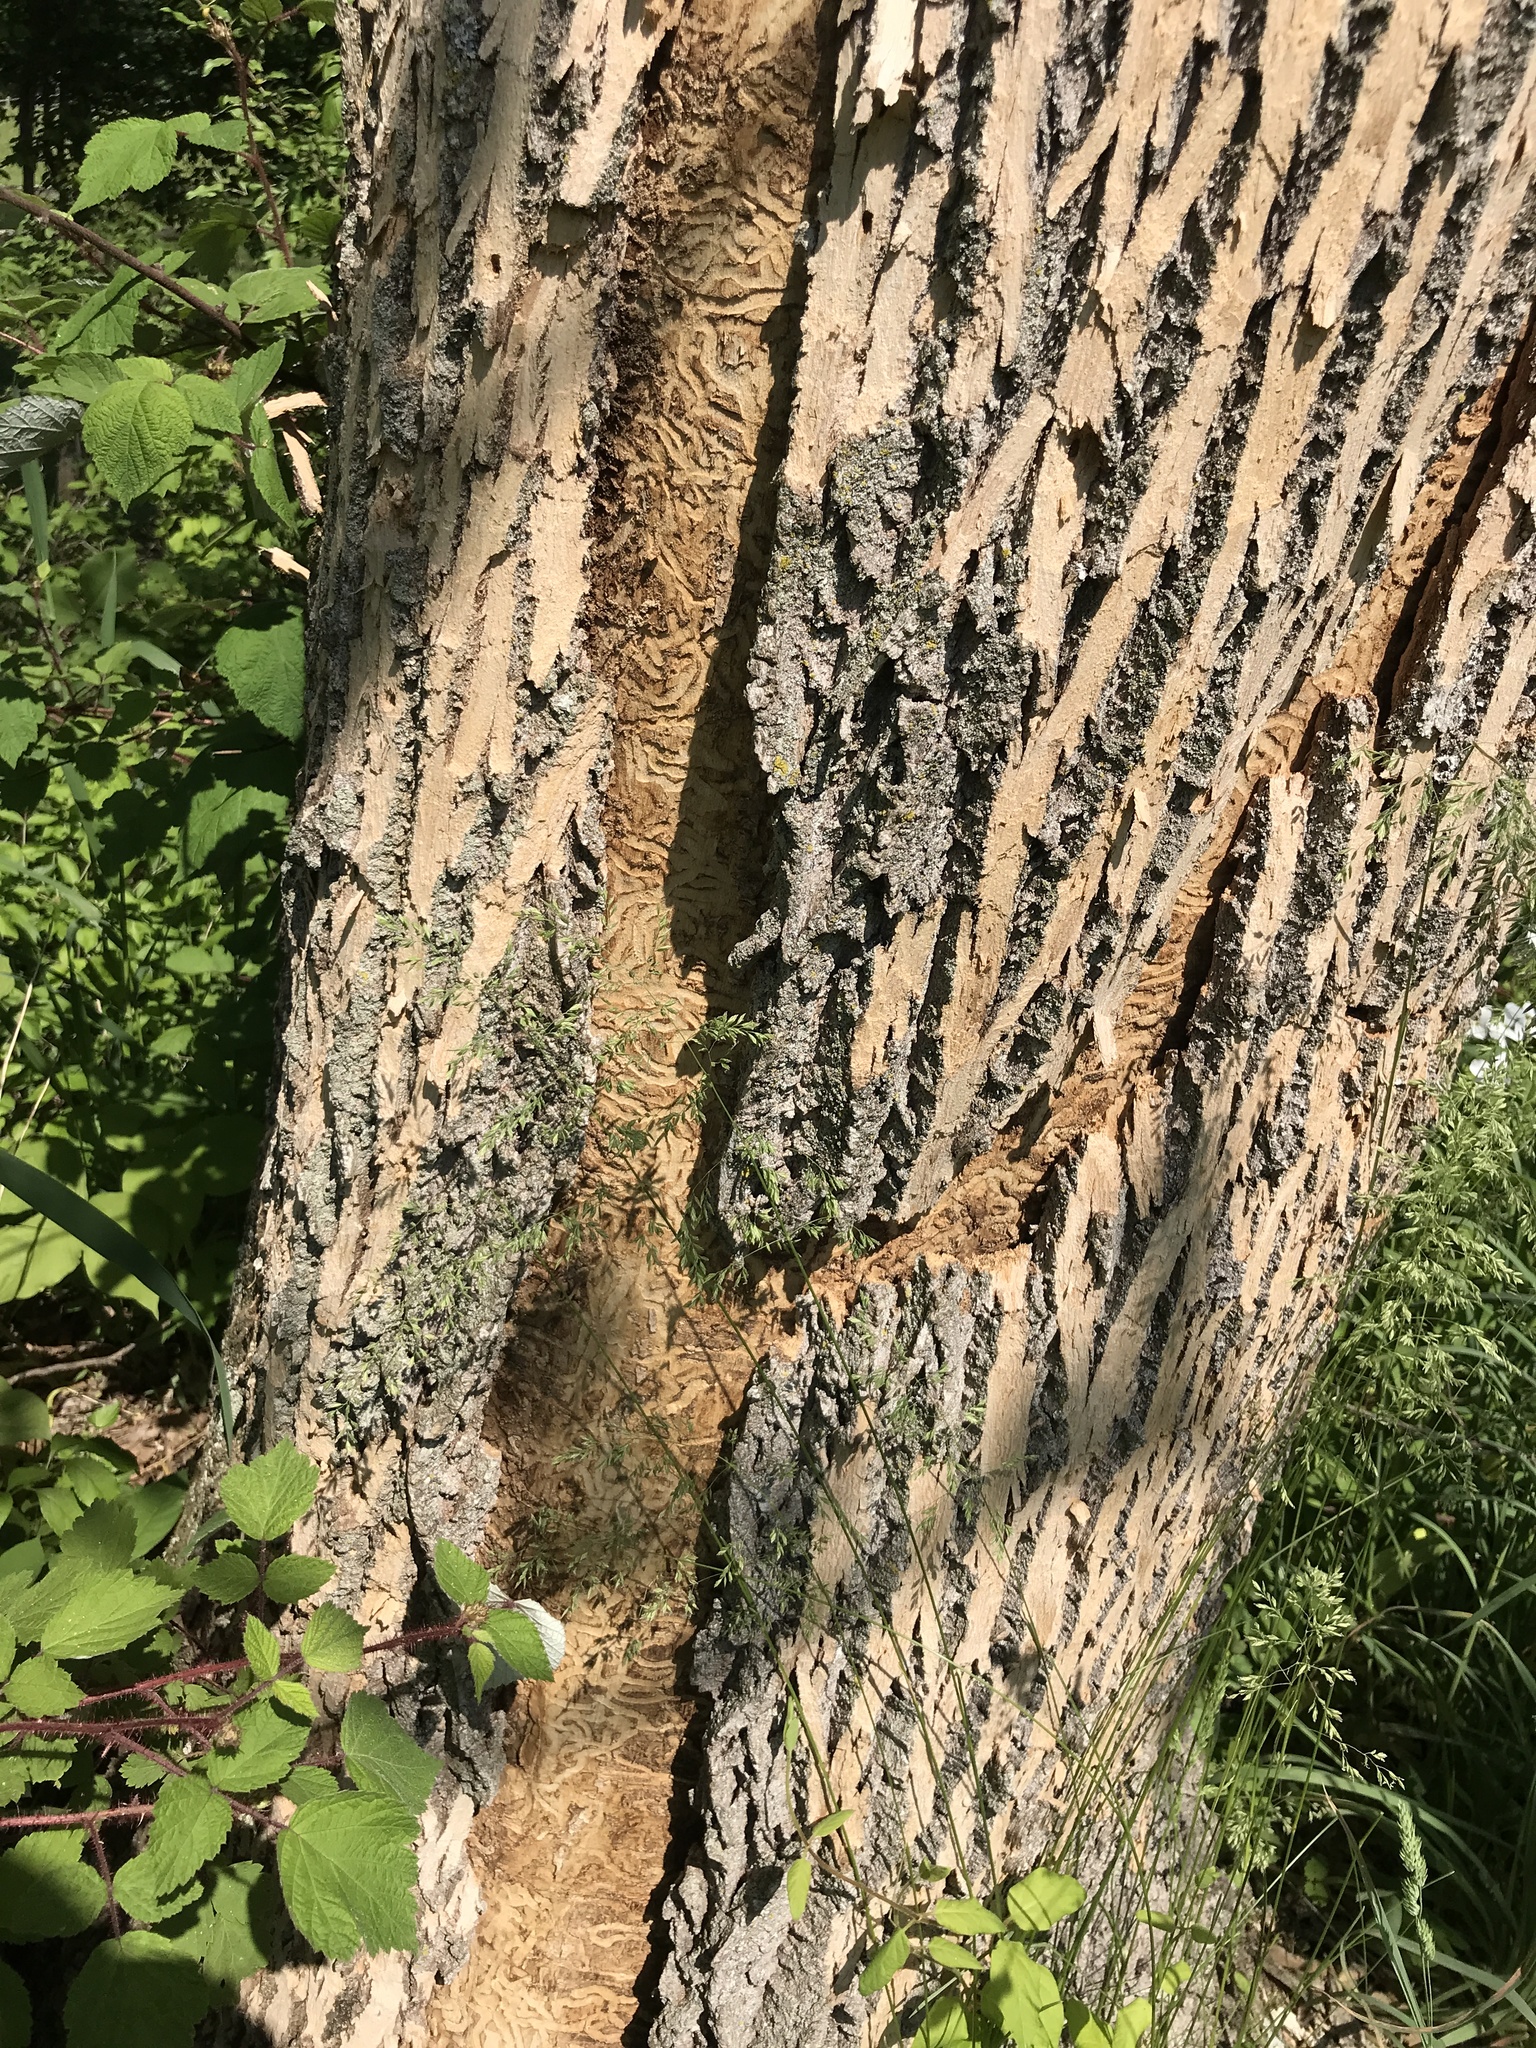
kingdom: Animalia
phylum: Arthropoda
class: Insecta
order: Coleoptera
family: Buprestidae
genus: Agrilus
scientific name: Agrilus planipennis
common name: Emerald ash borer
